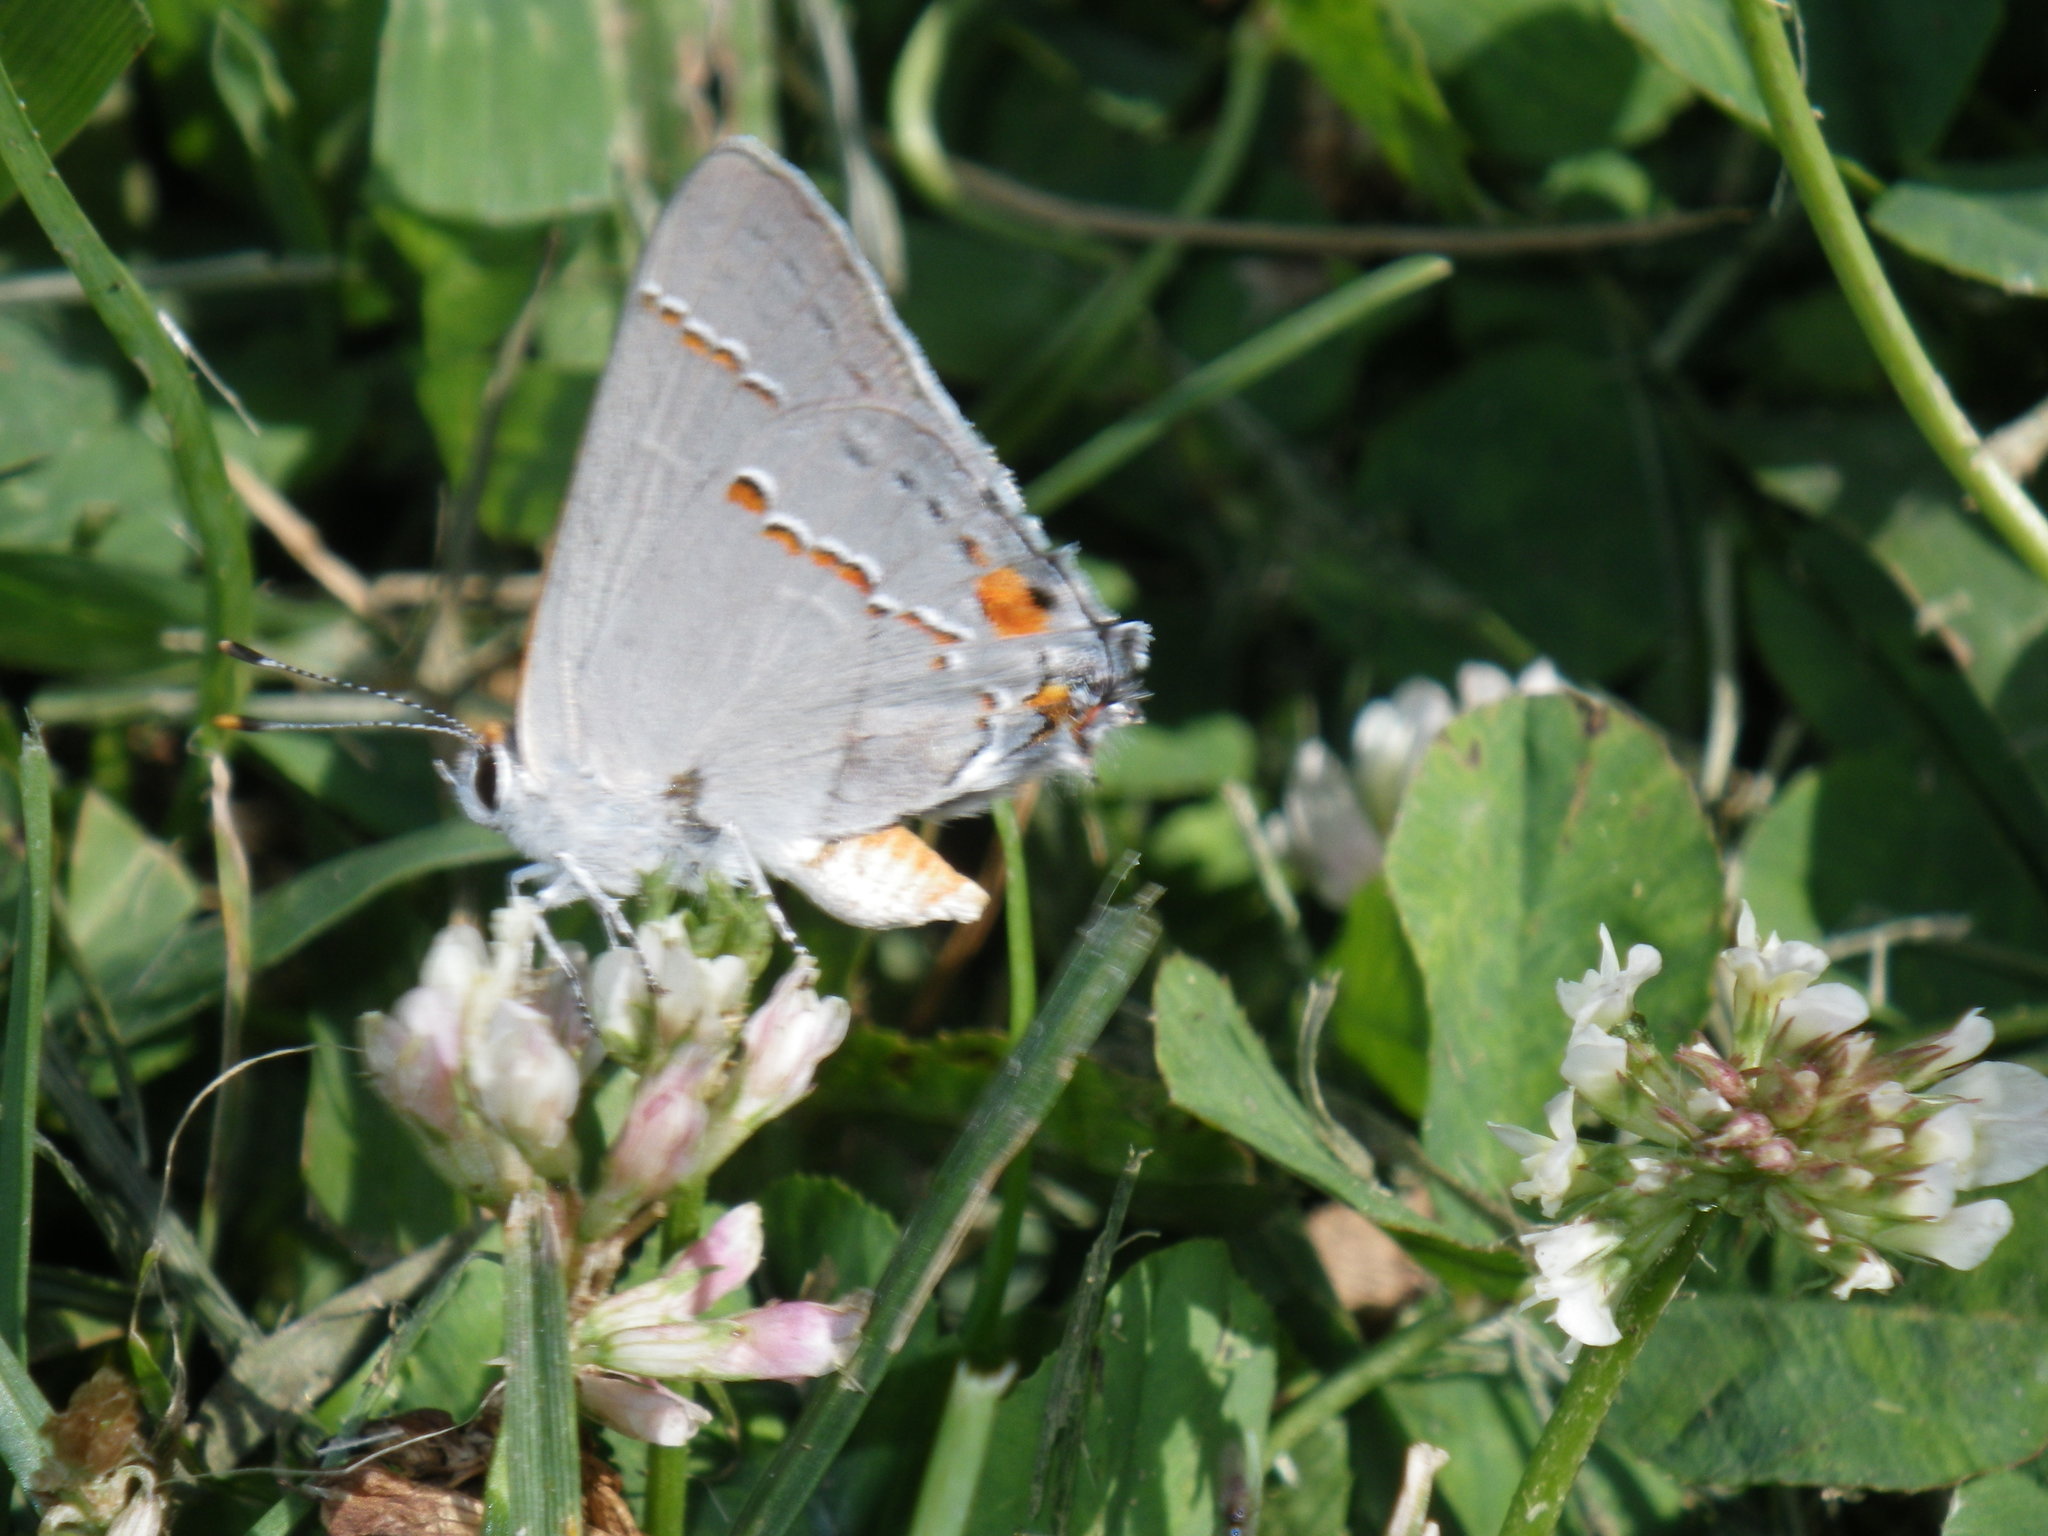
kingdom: Animalia
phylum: Arthropoda
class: Insecta
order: Lepidoptera
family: Lycaenidae
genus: Strymon
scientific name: Strymon melinus
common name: Gray hairstreak
